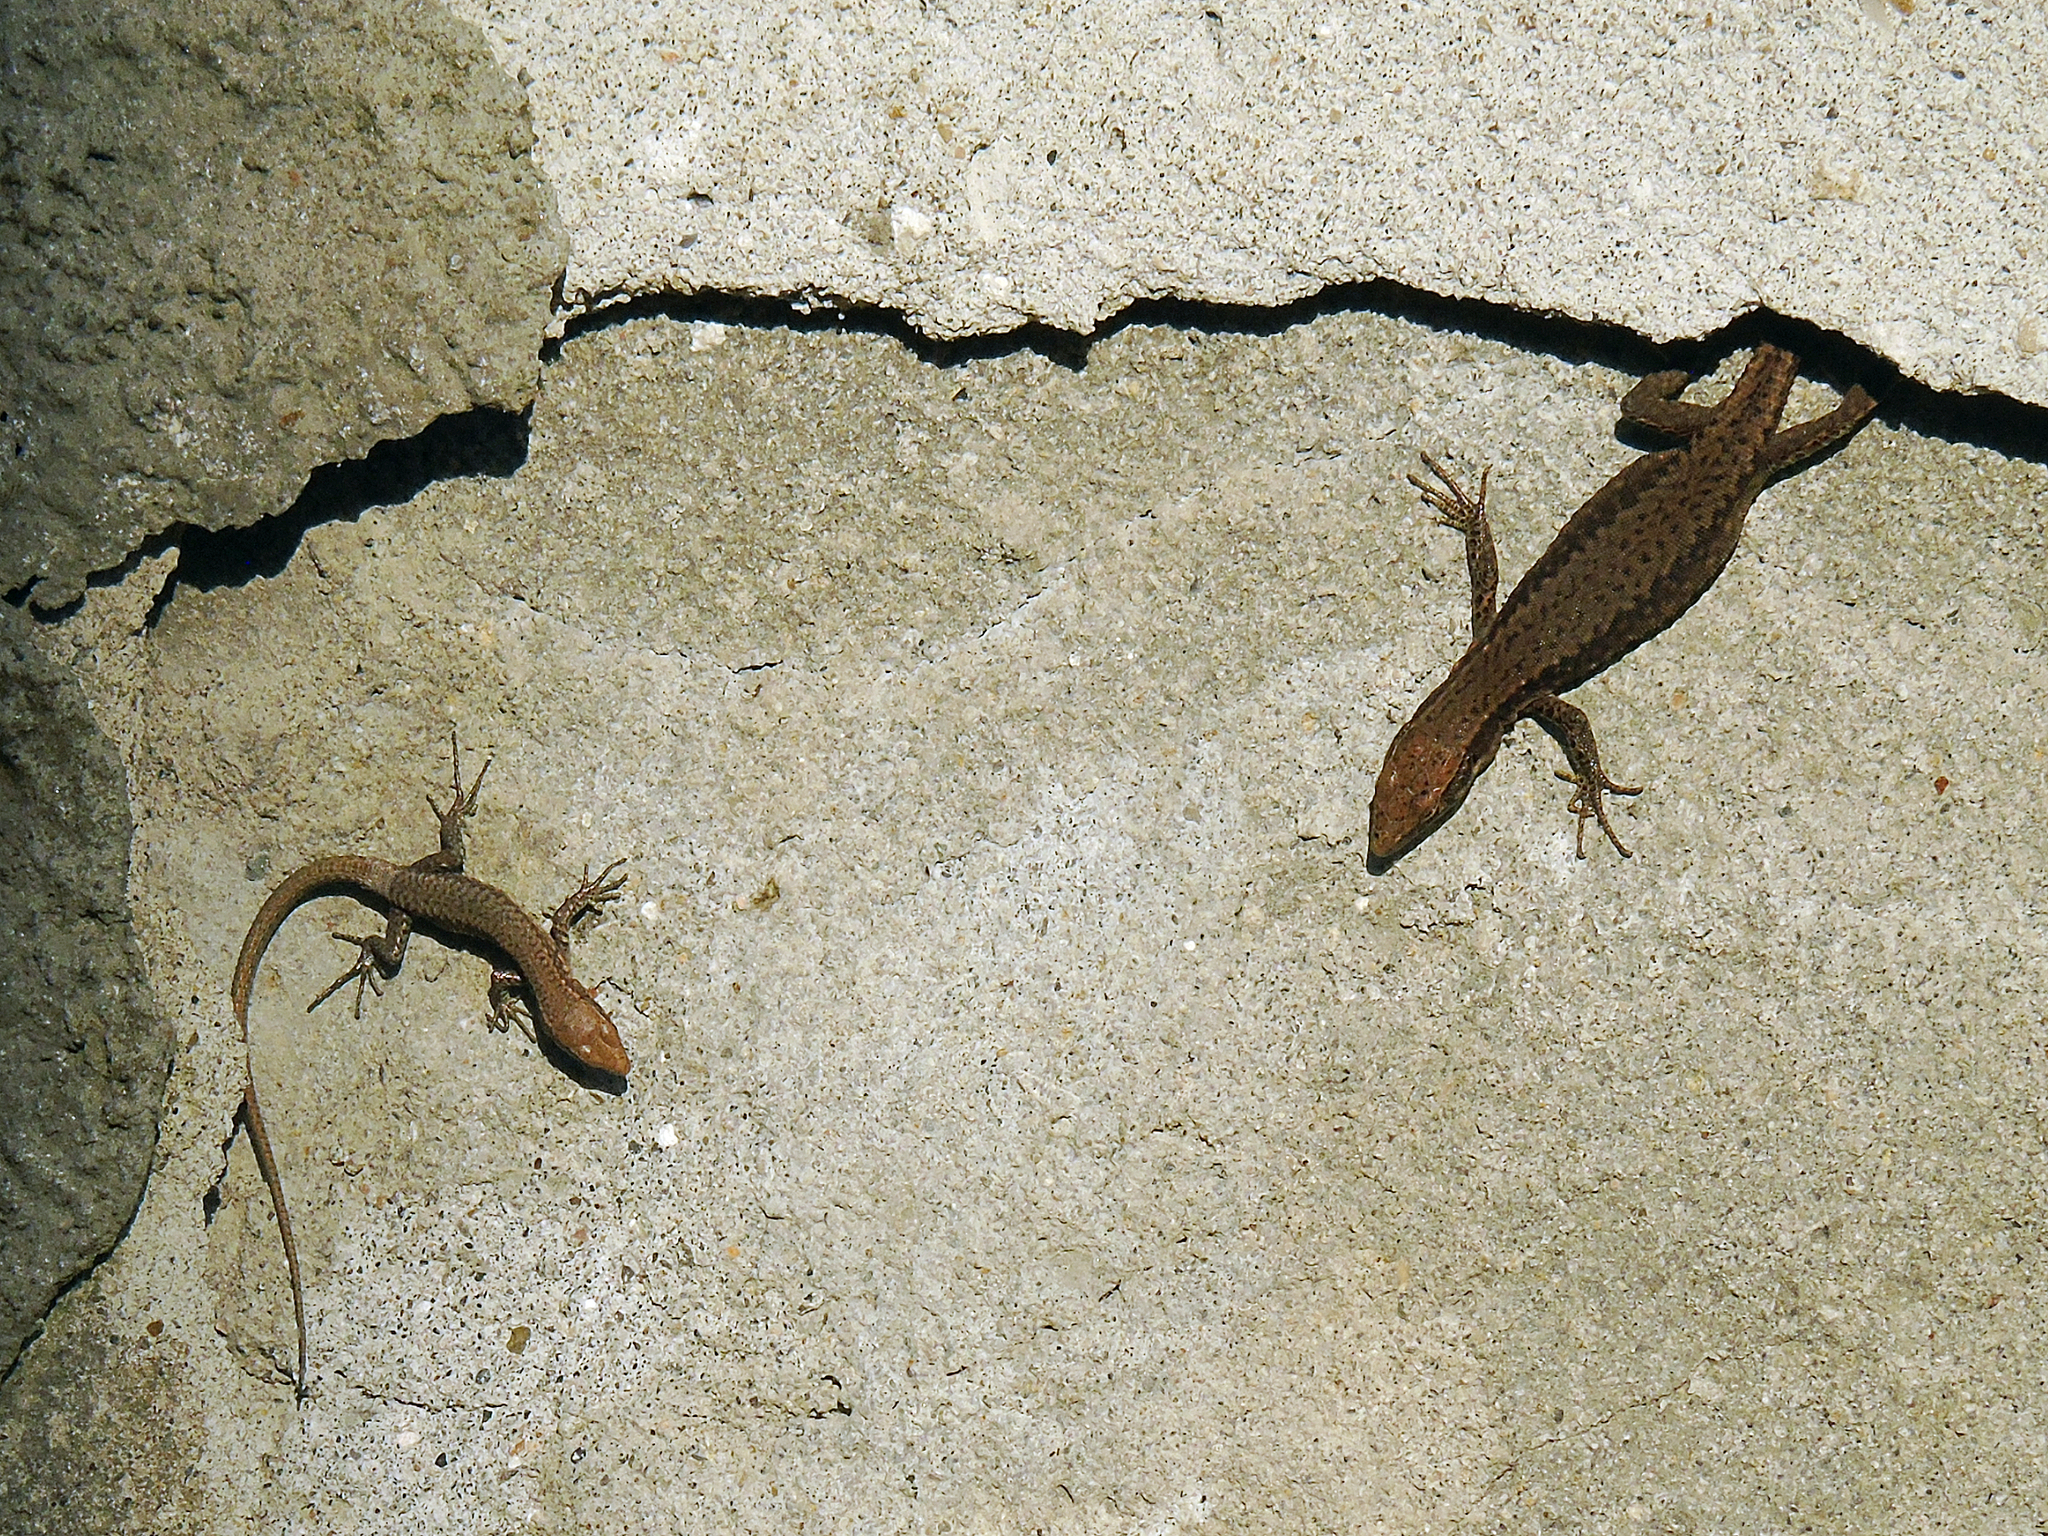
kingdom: Animalia
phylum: Chordata
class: Squamata
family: Lacertidae
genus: Darevskia
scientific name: Darevskia rudis
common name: Spiny-tailed lizard
